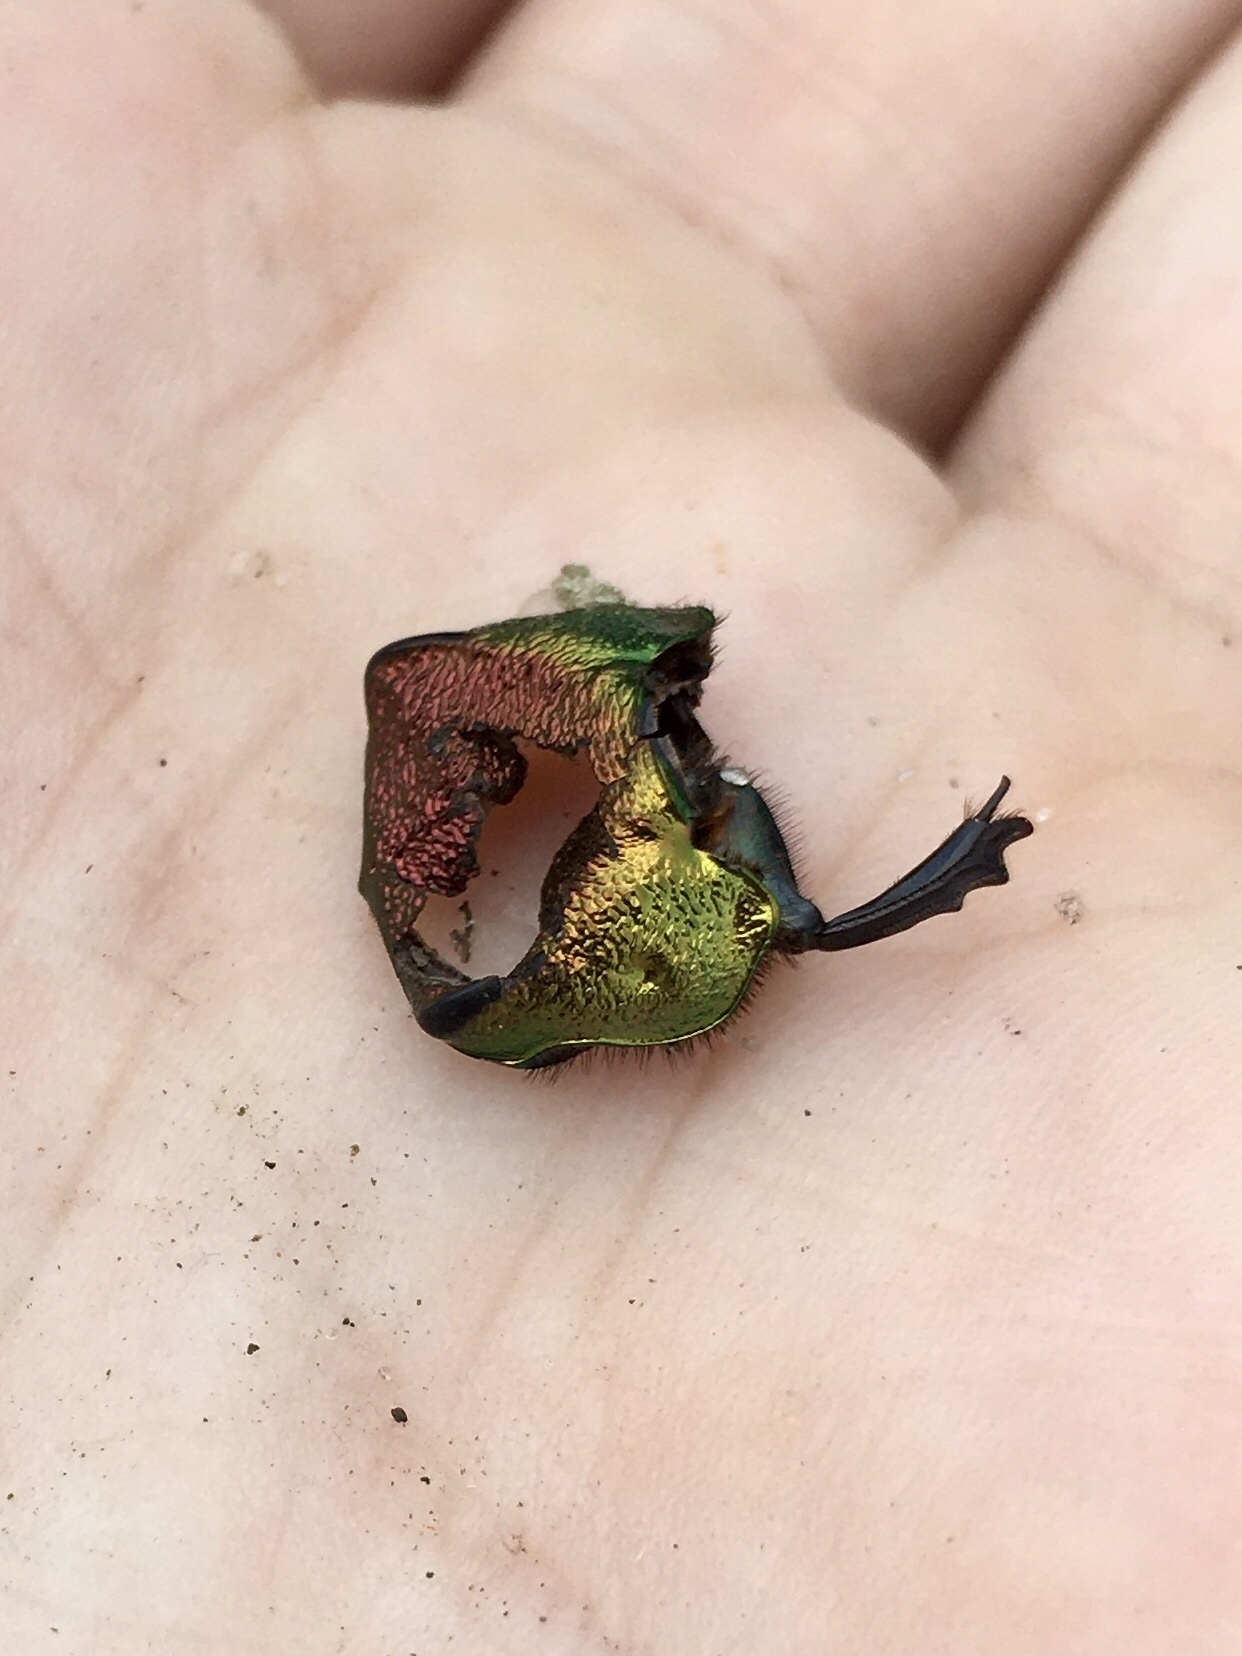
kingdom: Animalia
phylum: Arthropoda
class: Insecta
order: Coleoptera
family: Scarabaeidae
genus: Phanaeus
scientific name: Phanaeus vindex
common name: Rainbow scarab
